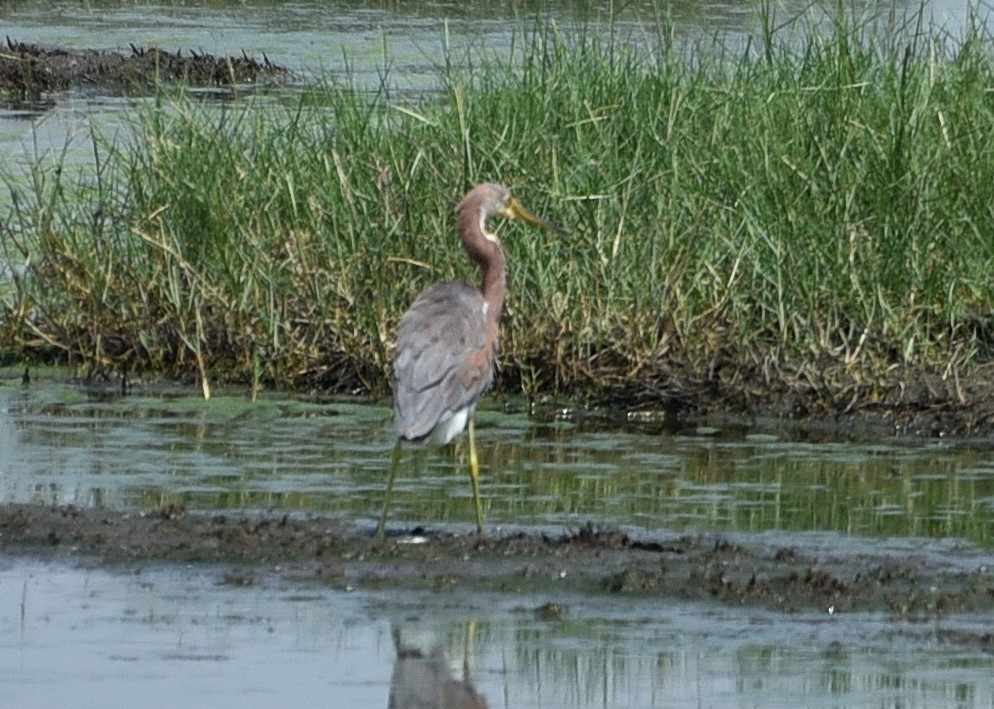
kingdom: Animalia
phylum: Chordata
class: Aves
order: Pelecaniformes
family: Ardeidae
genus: Egretta
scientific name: Egretta tricolor
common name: Tricolored heron
